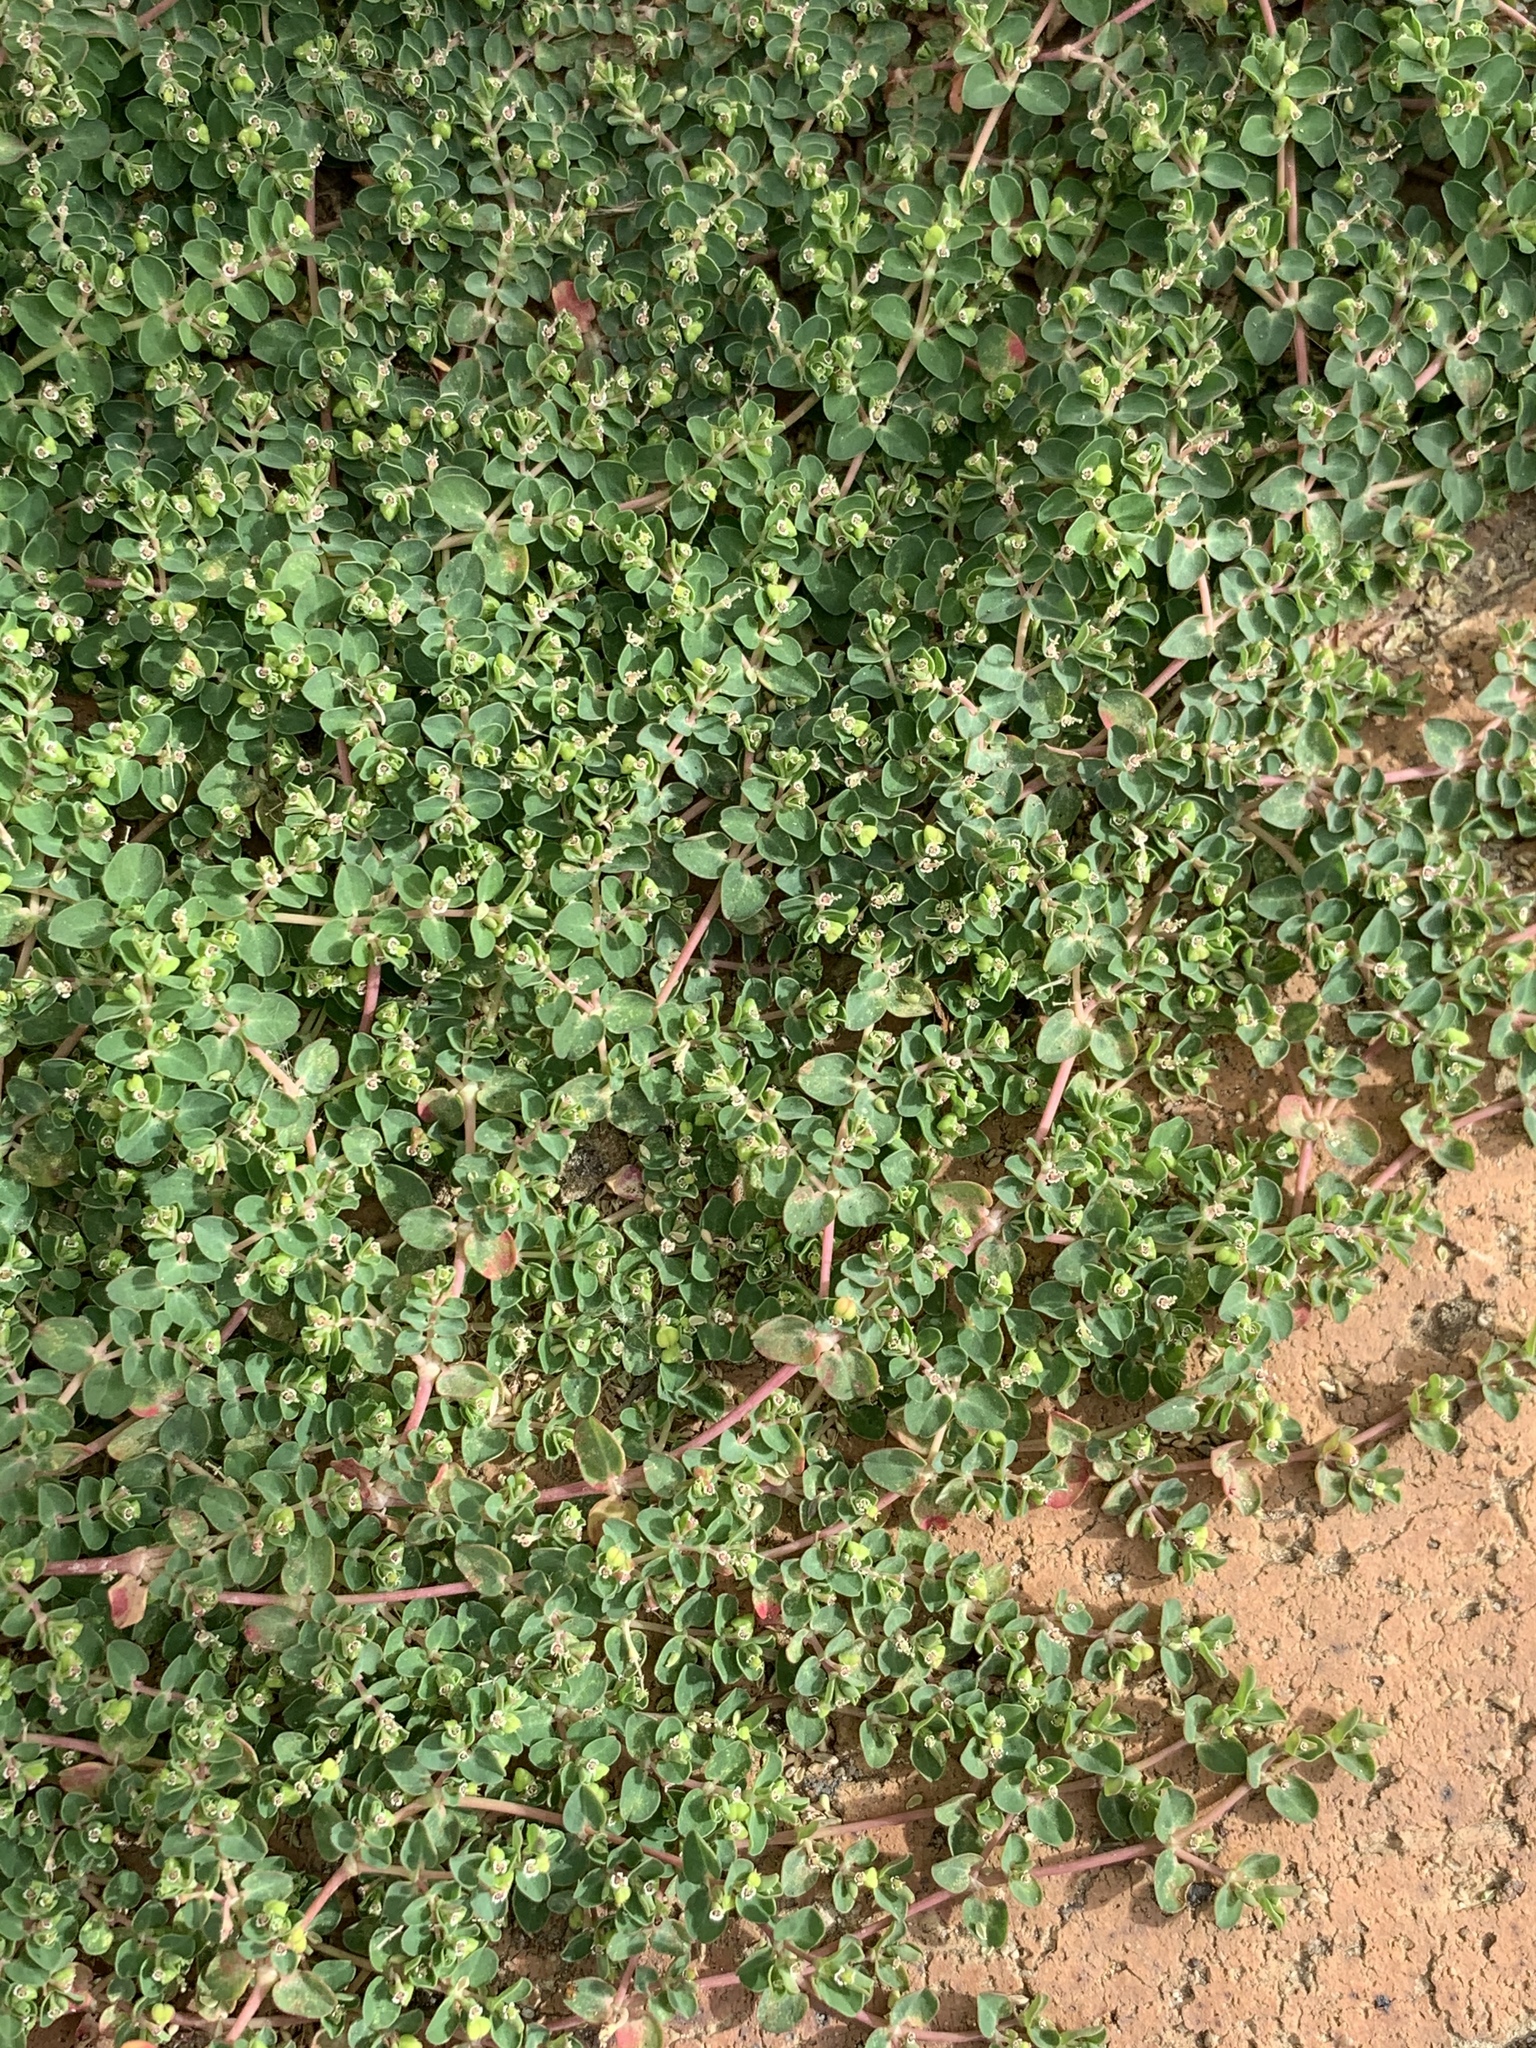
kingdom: Plantae
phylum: Tracheophyta
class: Magnoliopsida
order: Malpighiales
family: Euphorbiaceae
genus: Euphorbia
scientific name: Euphorbia serpens
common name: Matted sandmat
